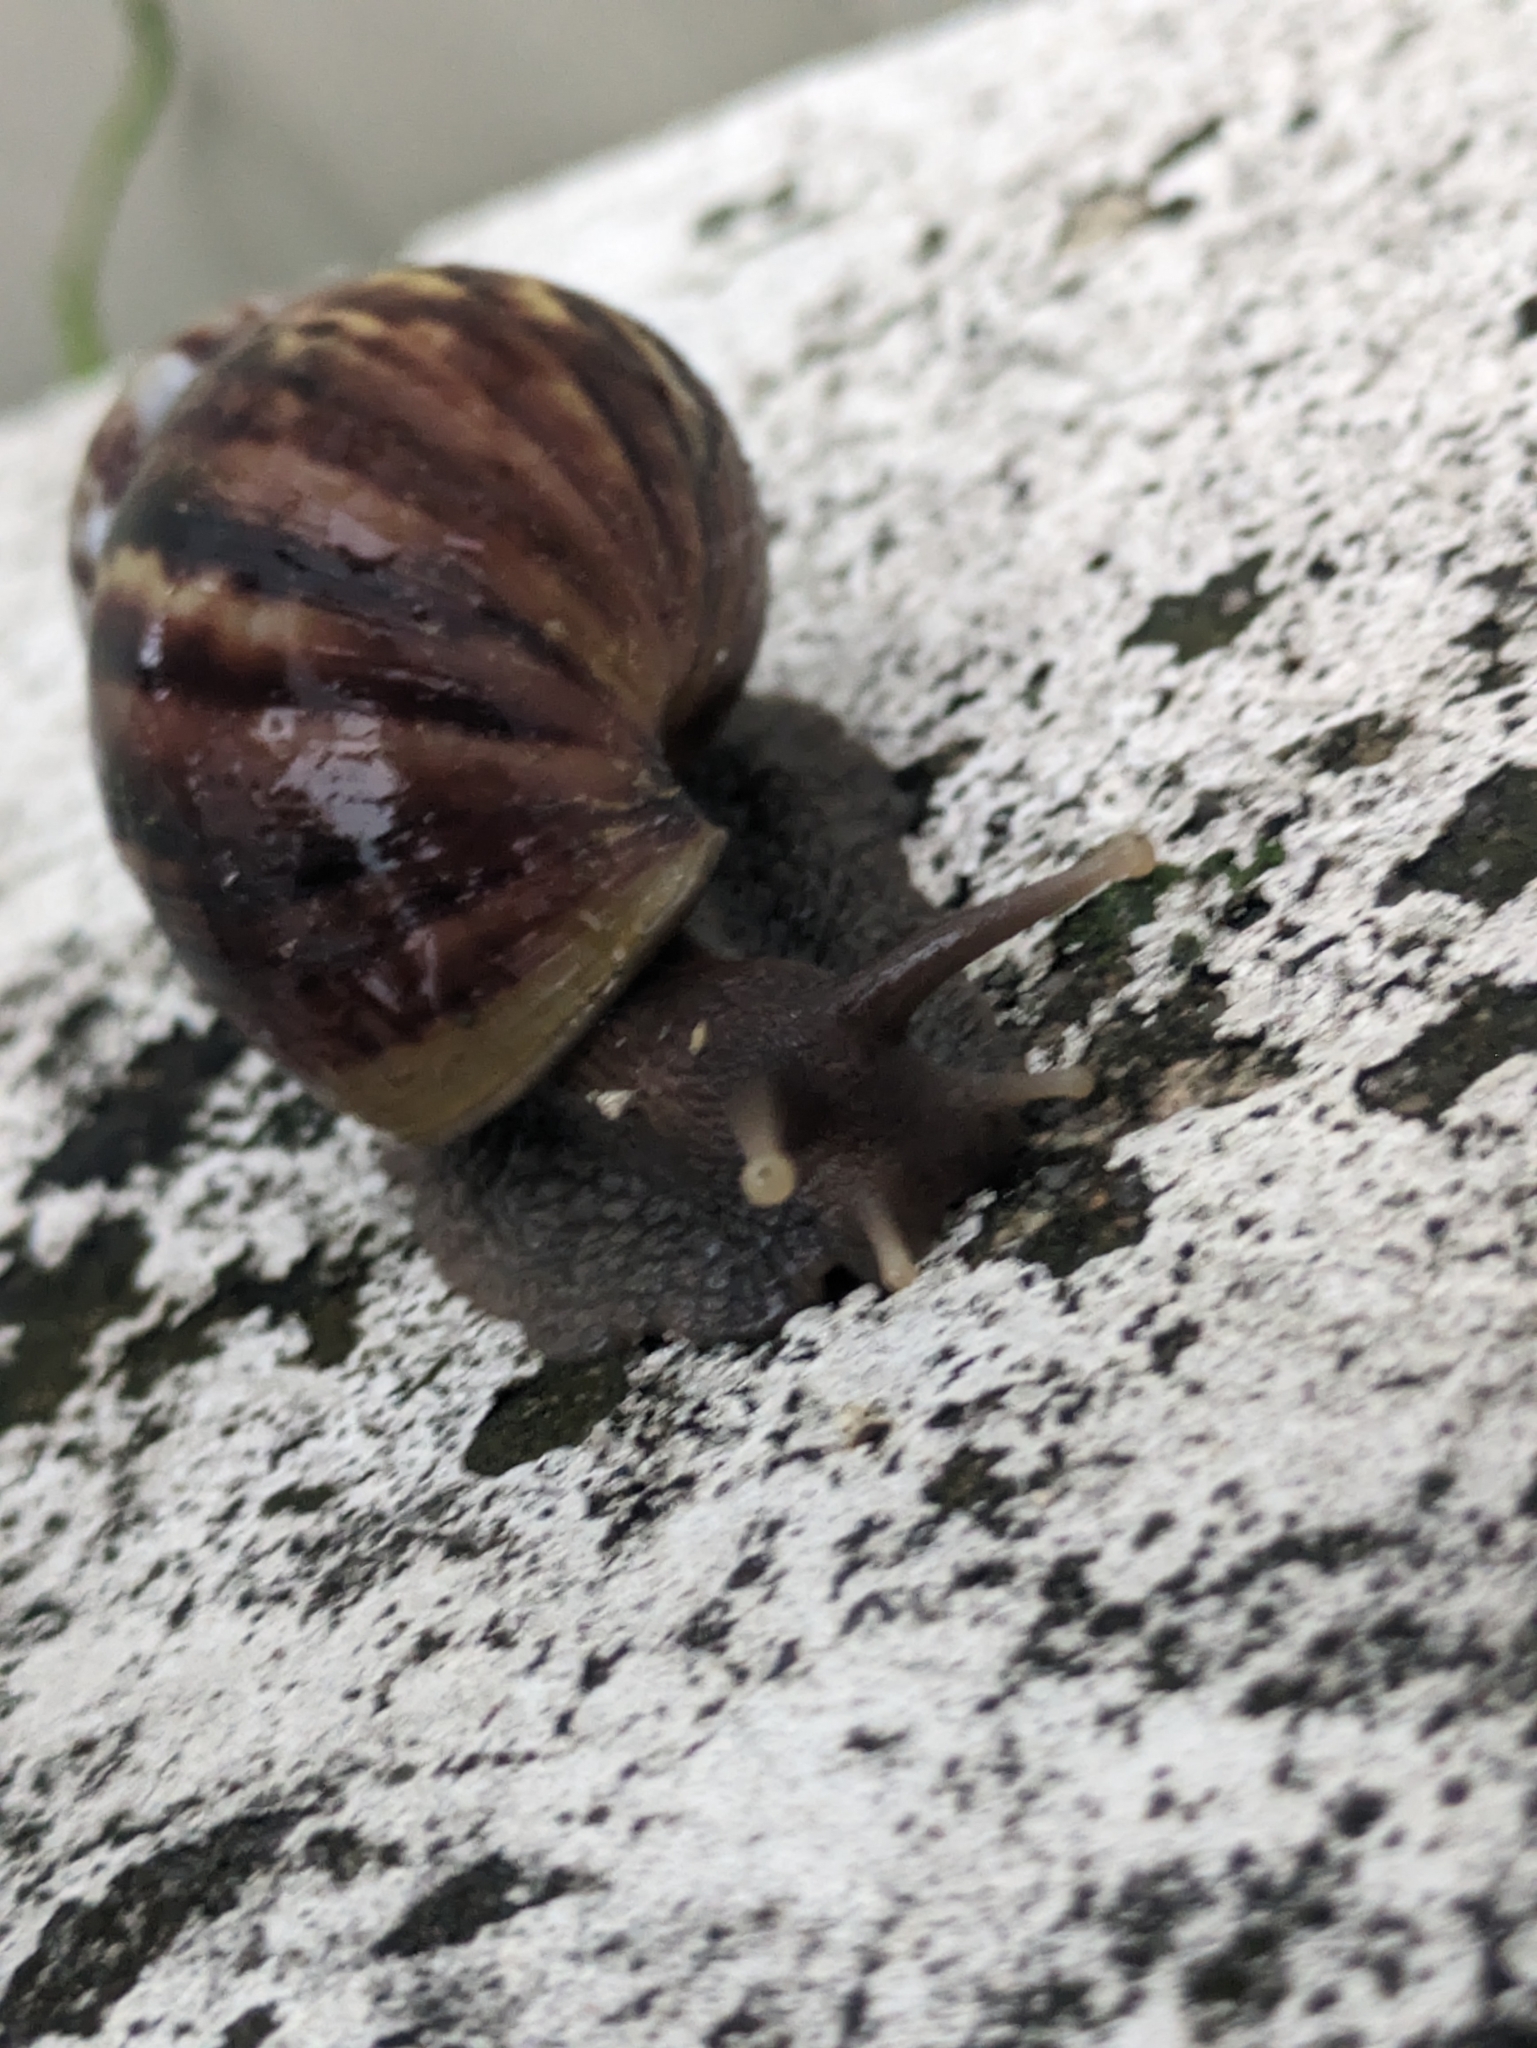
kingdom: Animalia
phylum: Mollusca
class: Gastropoda
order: Stylommatophora
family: Achatinidae
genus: Lissachatina
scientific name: Lissachatina fulica
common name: Giant african snail
